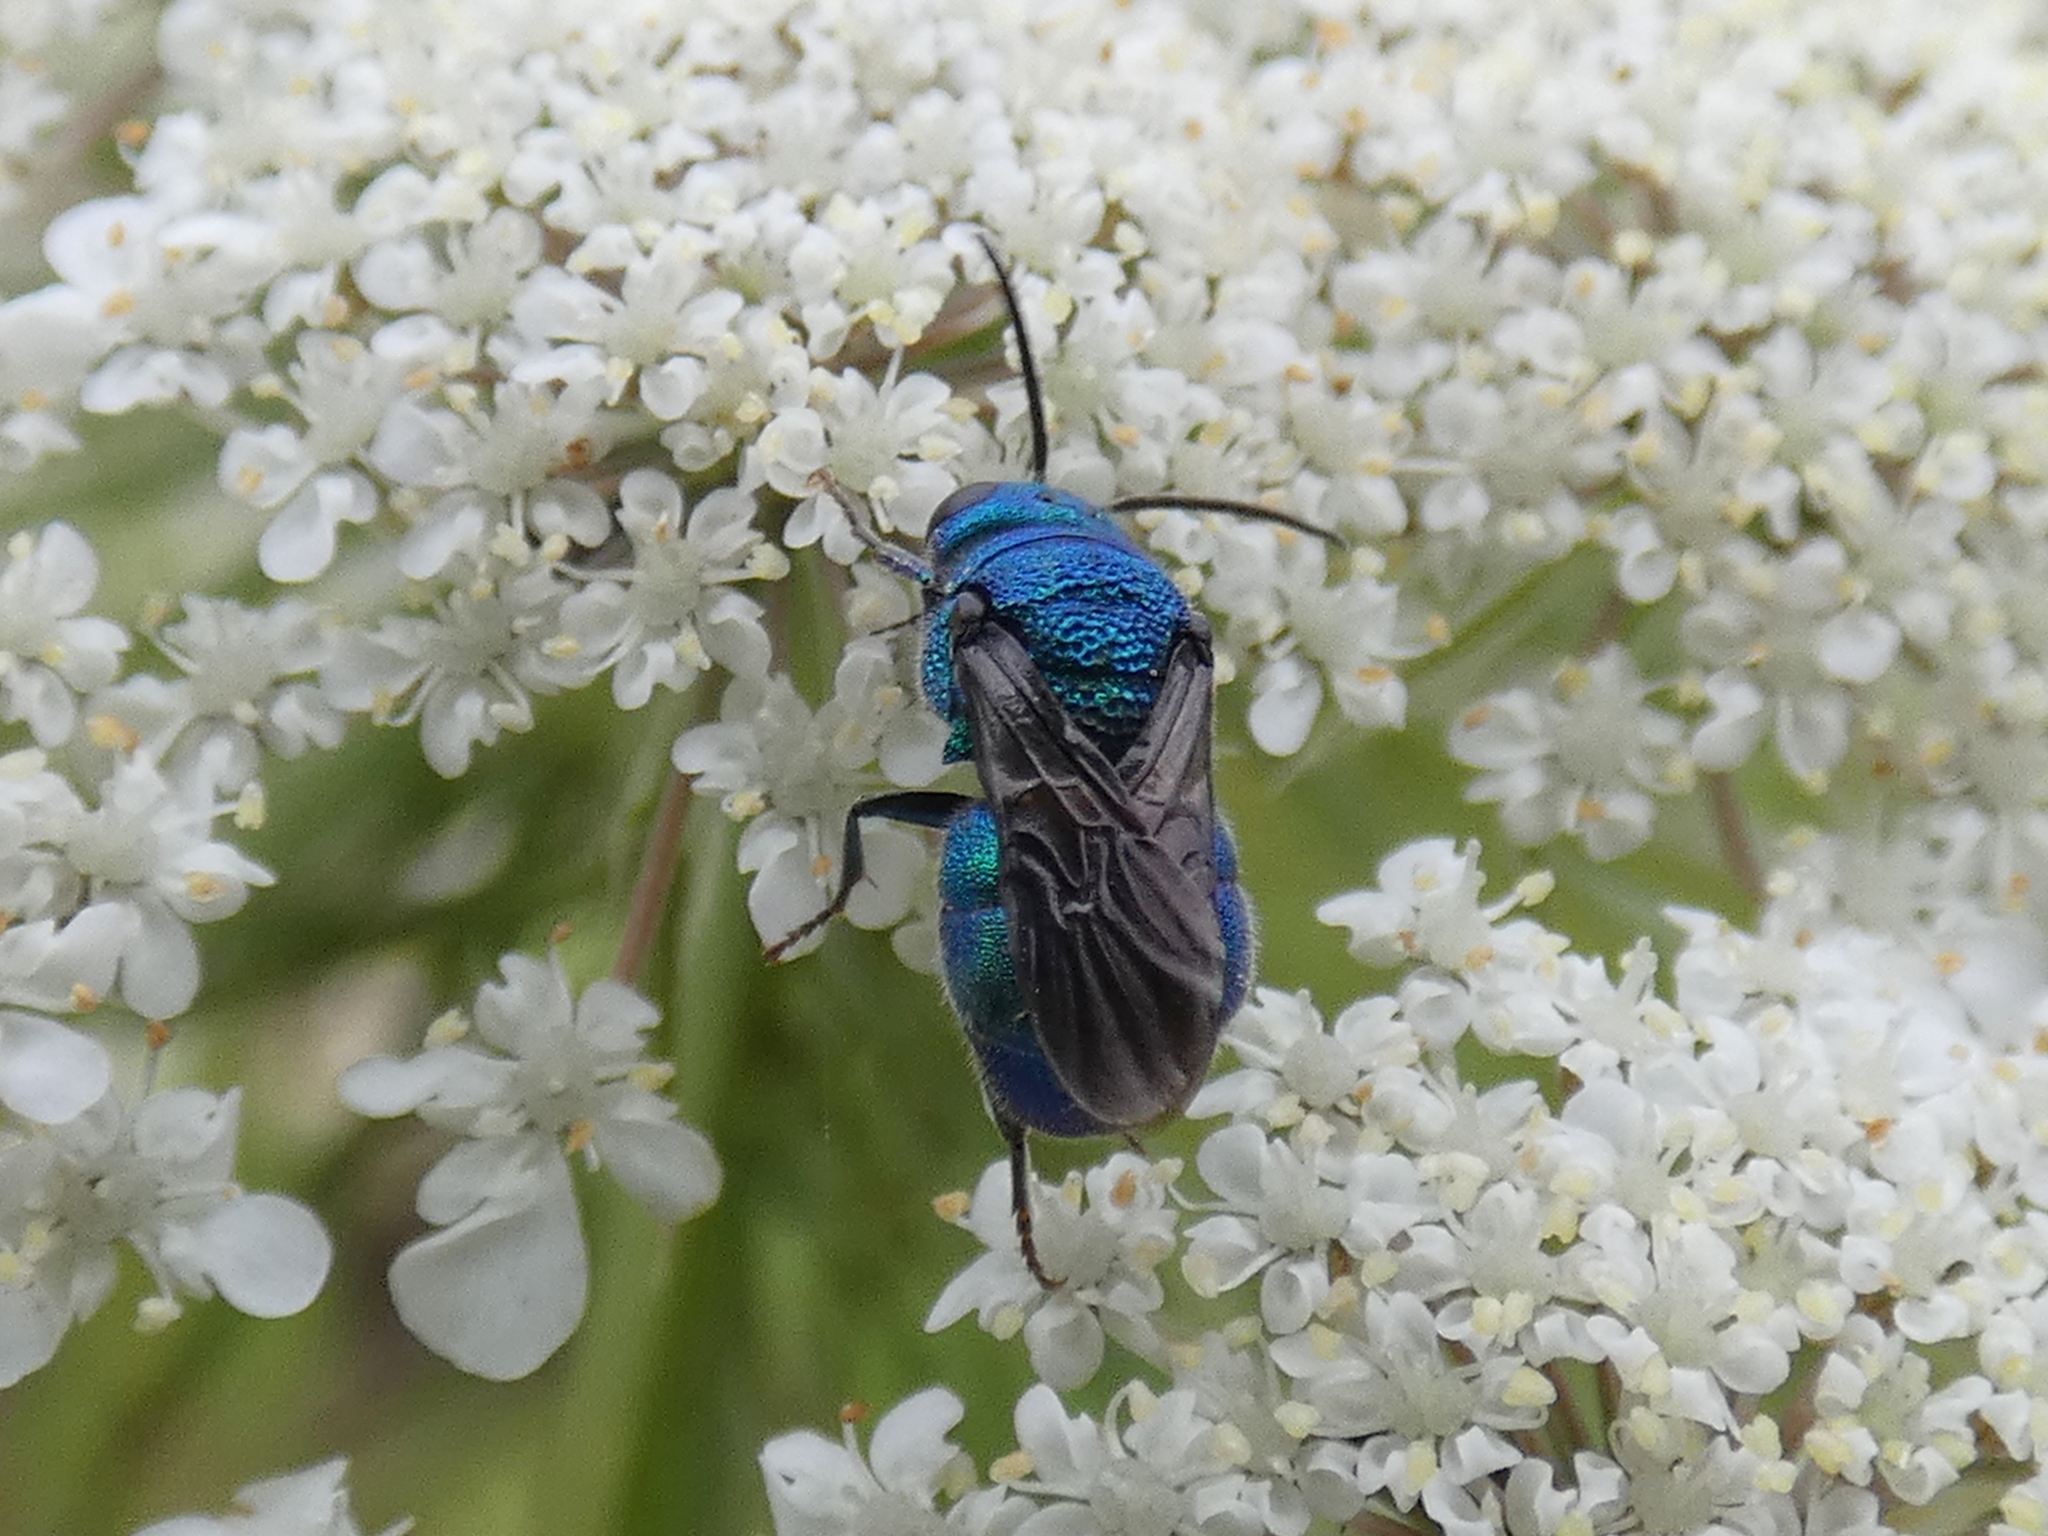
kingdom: Animalia
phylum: Arthropoda
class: Insecta
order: Hymenoptera
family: Chrysididae
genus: Holopyga
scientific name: Holopyga
